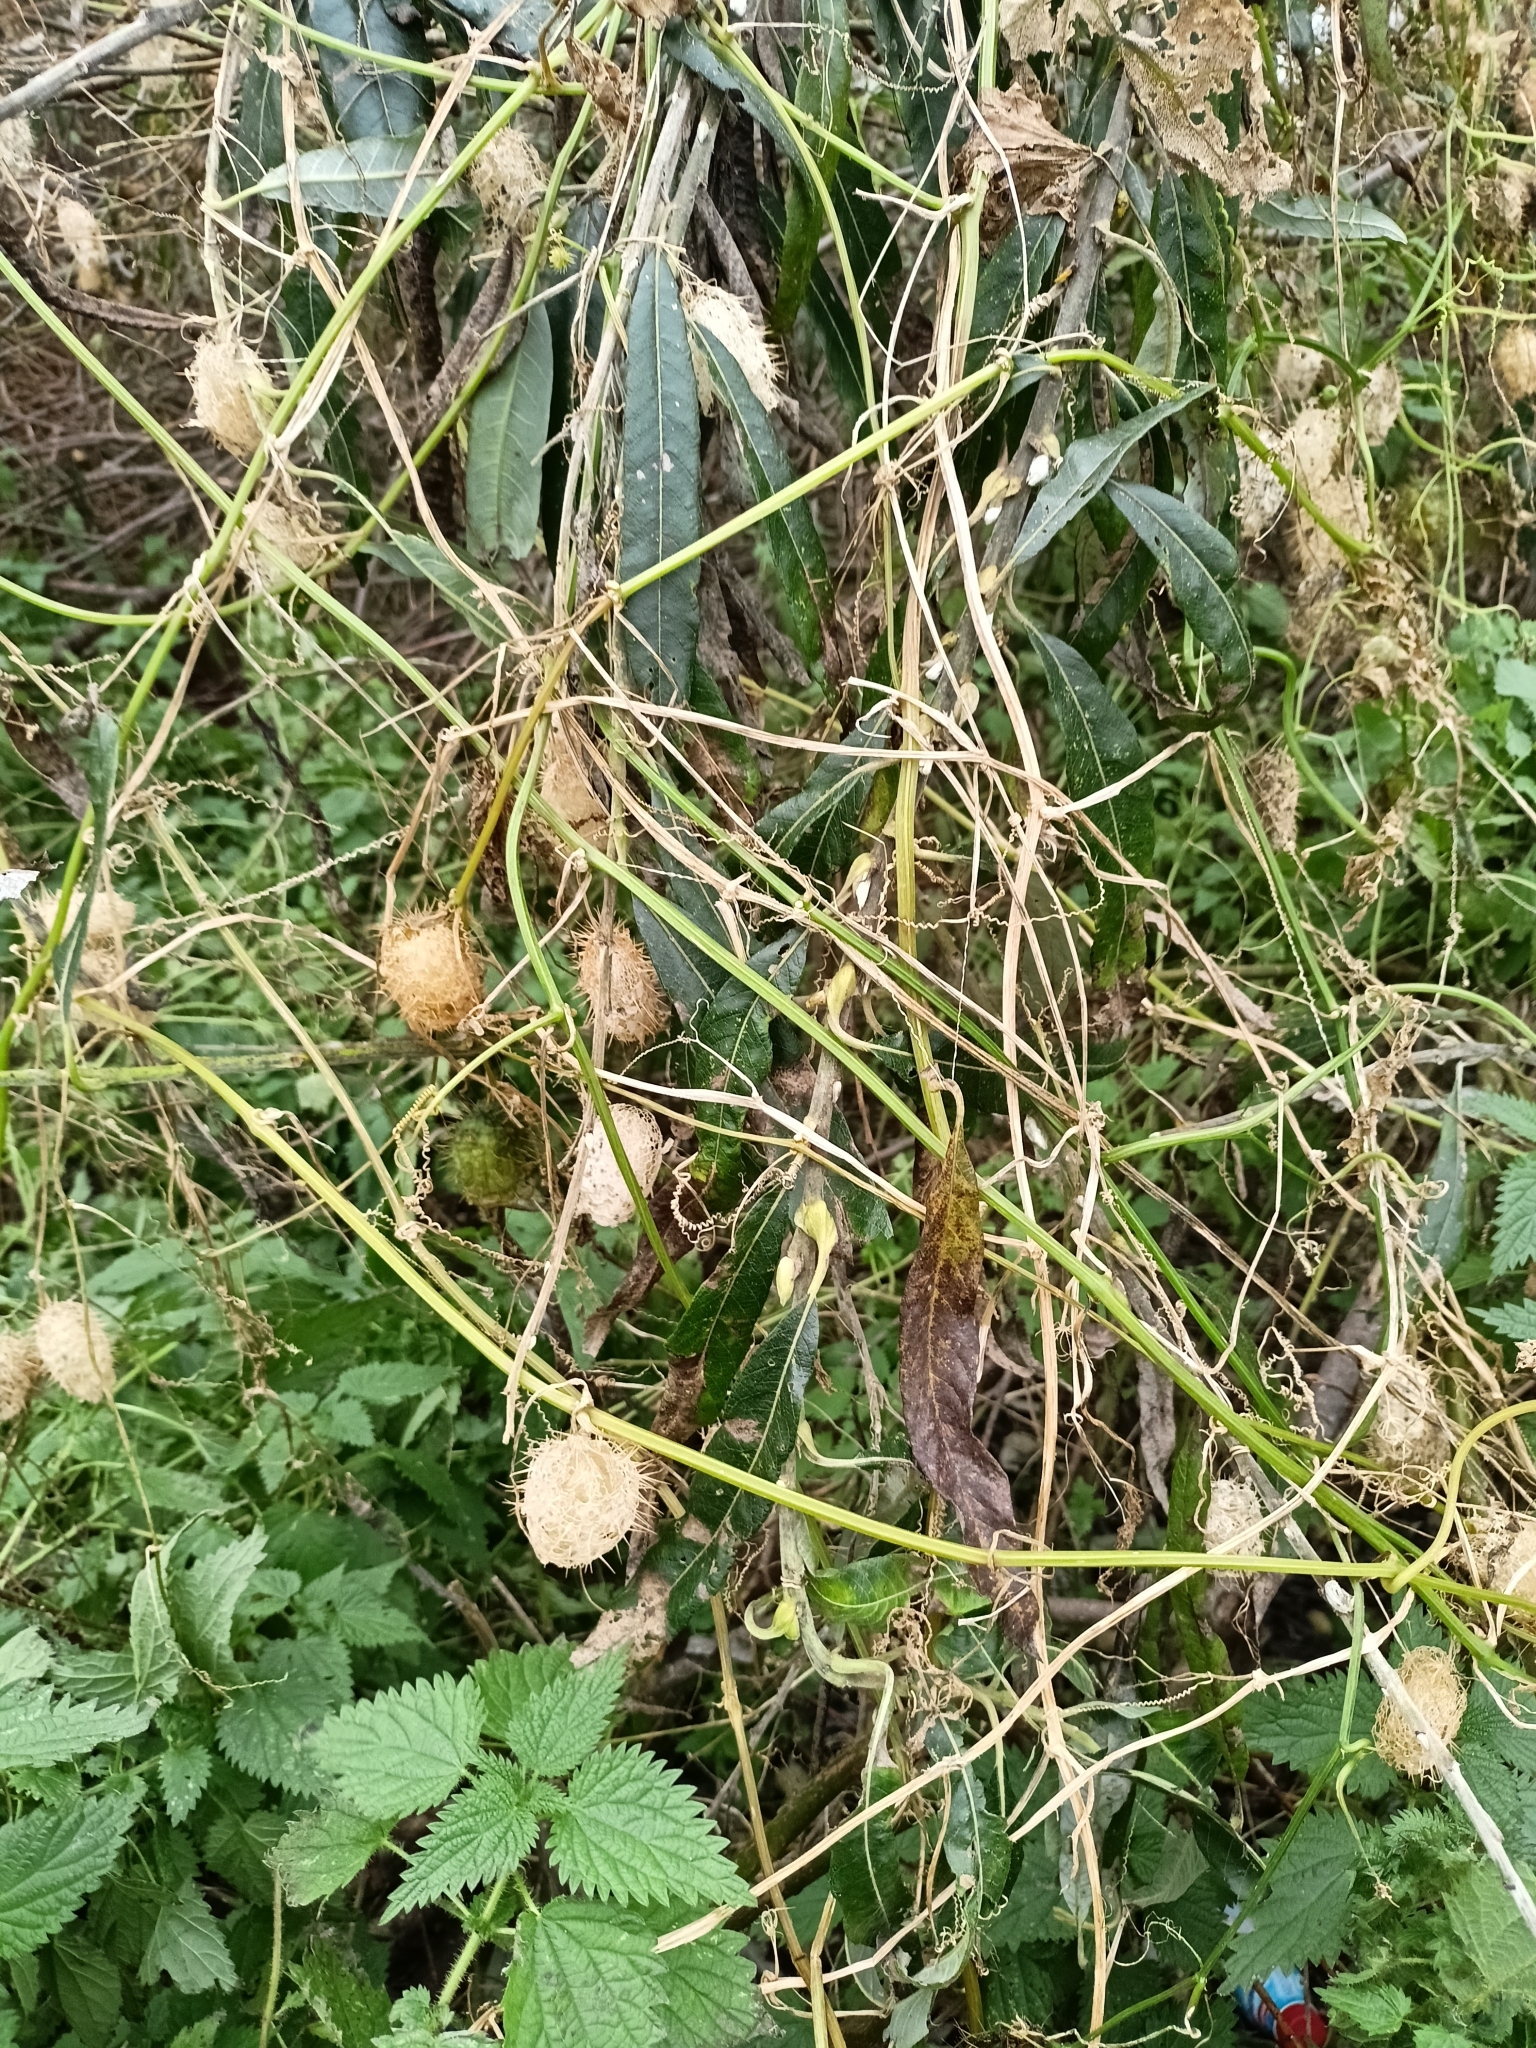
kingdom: Plantae
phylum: Tracheophyta
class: Magnoliopsida
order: Cucurbitales
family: Cucurbitaceae
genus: Echinocystis
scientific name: Echinocystis lobata
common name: Wild cucumber
